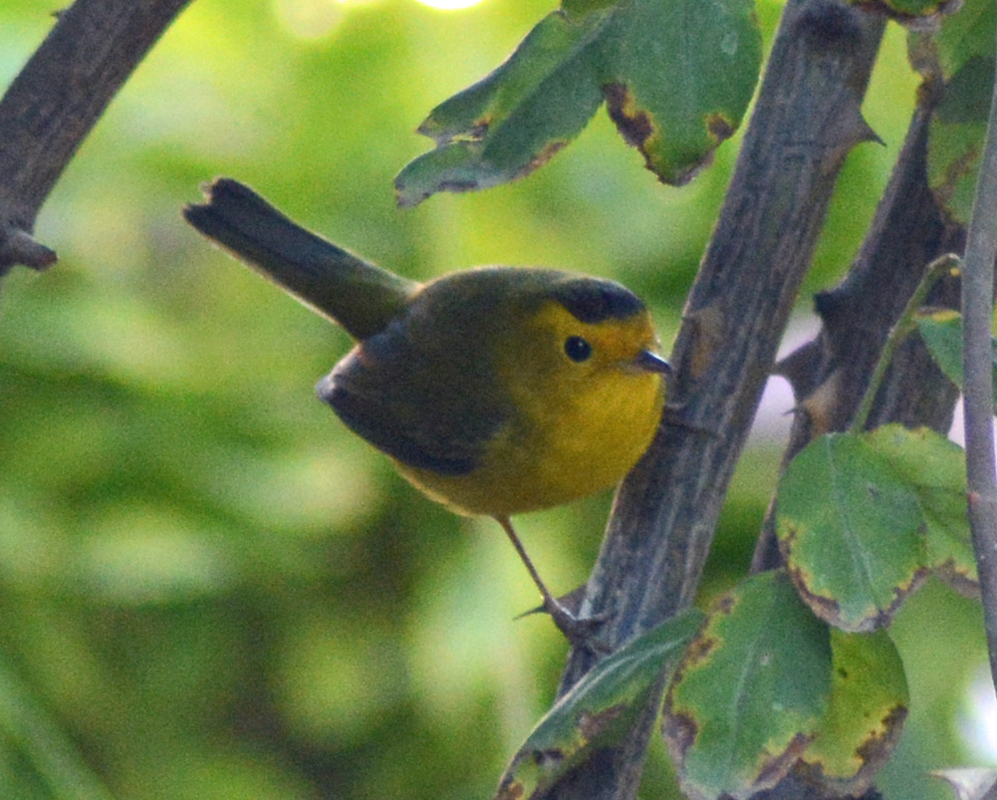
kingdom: Animalia
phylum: Chordata
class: Aves
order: Passeriformes
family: Parulidae
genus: Cardellina
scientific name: Cardellina pusilla
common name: Wilson's warbler
